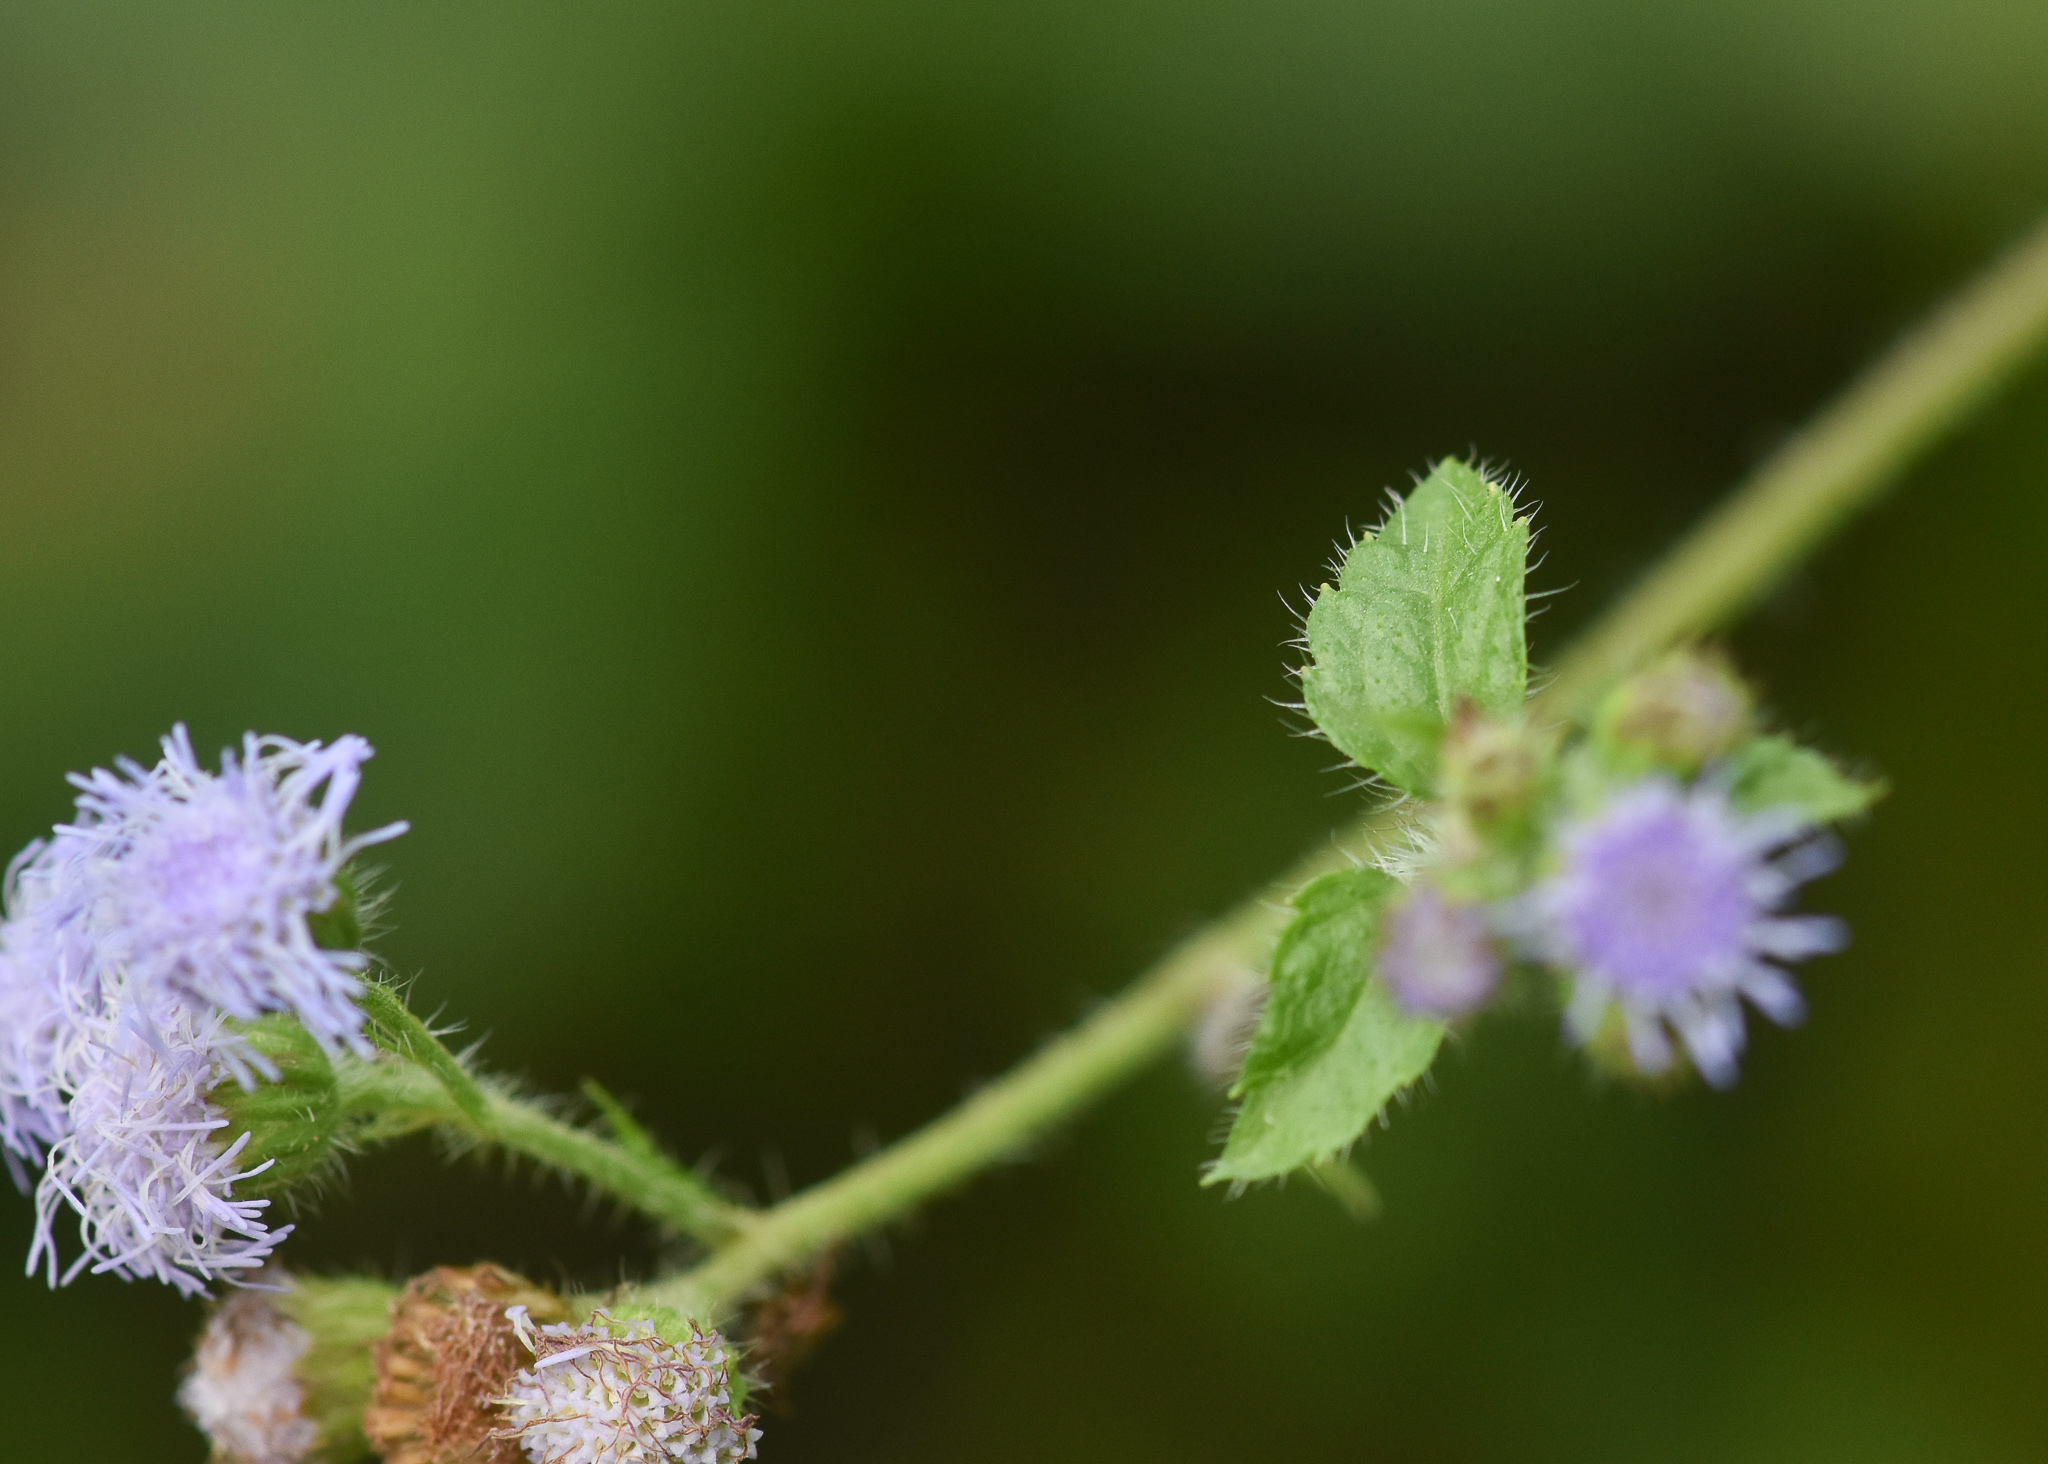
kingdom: Plantae
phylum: Tracheophyta
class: Magnoliopsida
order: Asterales
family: Asteraceae
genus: Ageratum
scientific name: Ageratum houstonianum
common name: Bluemink
